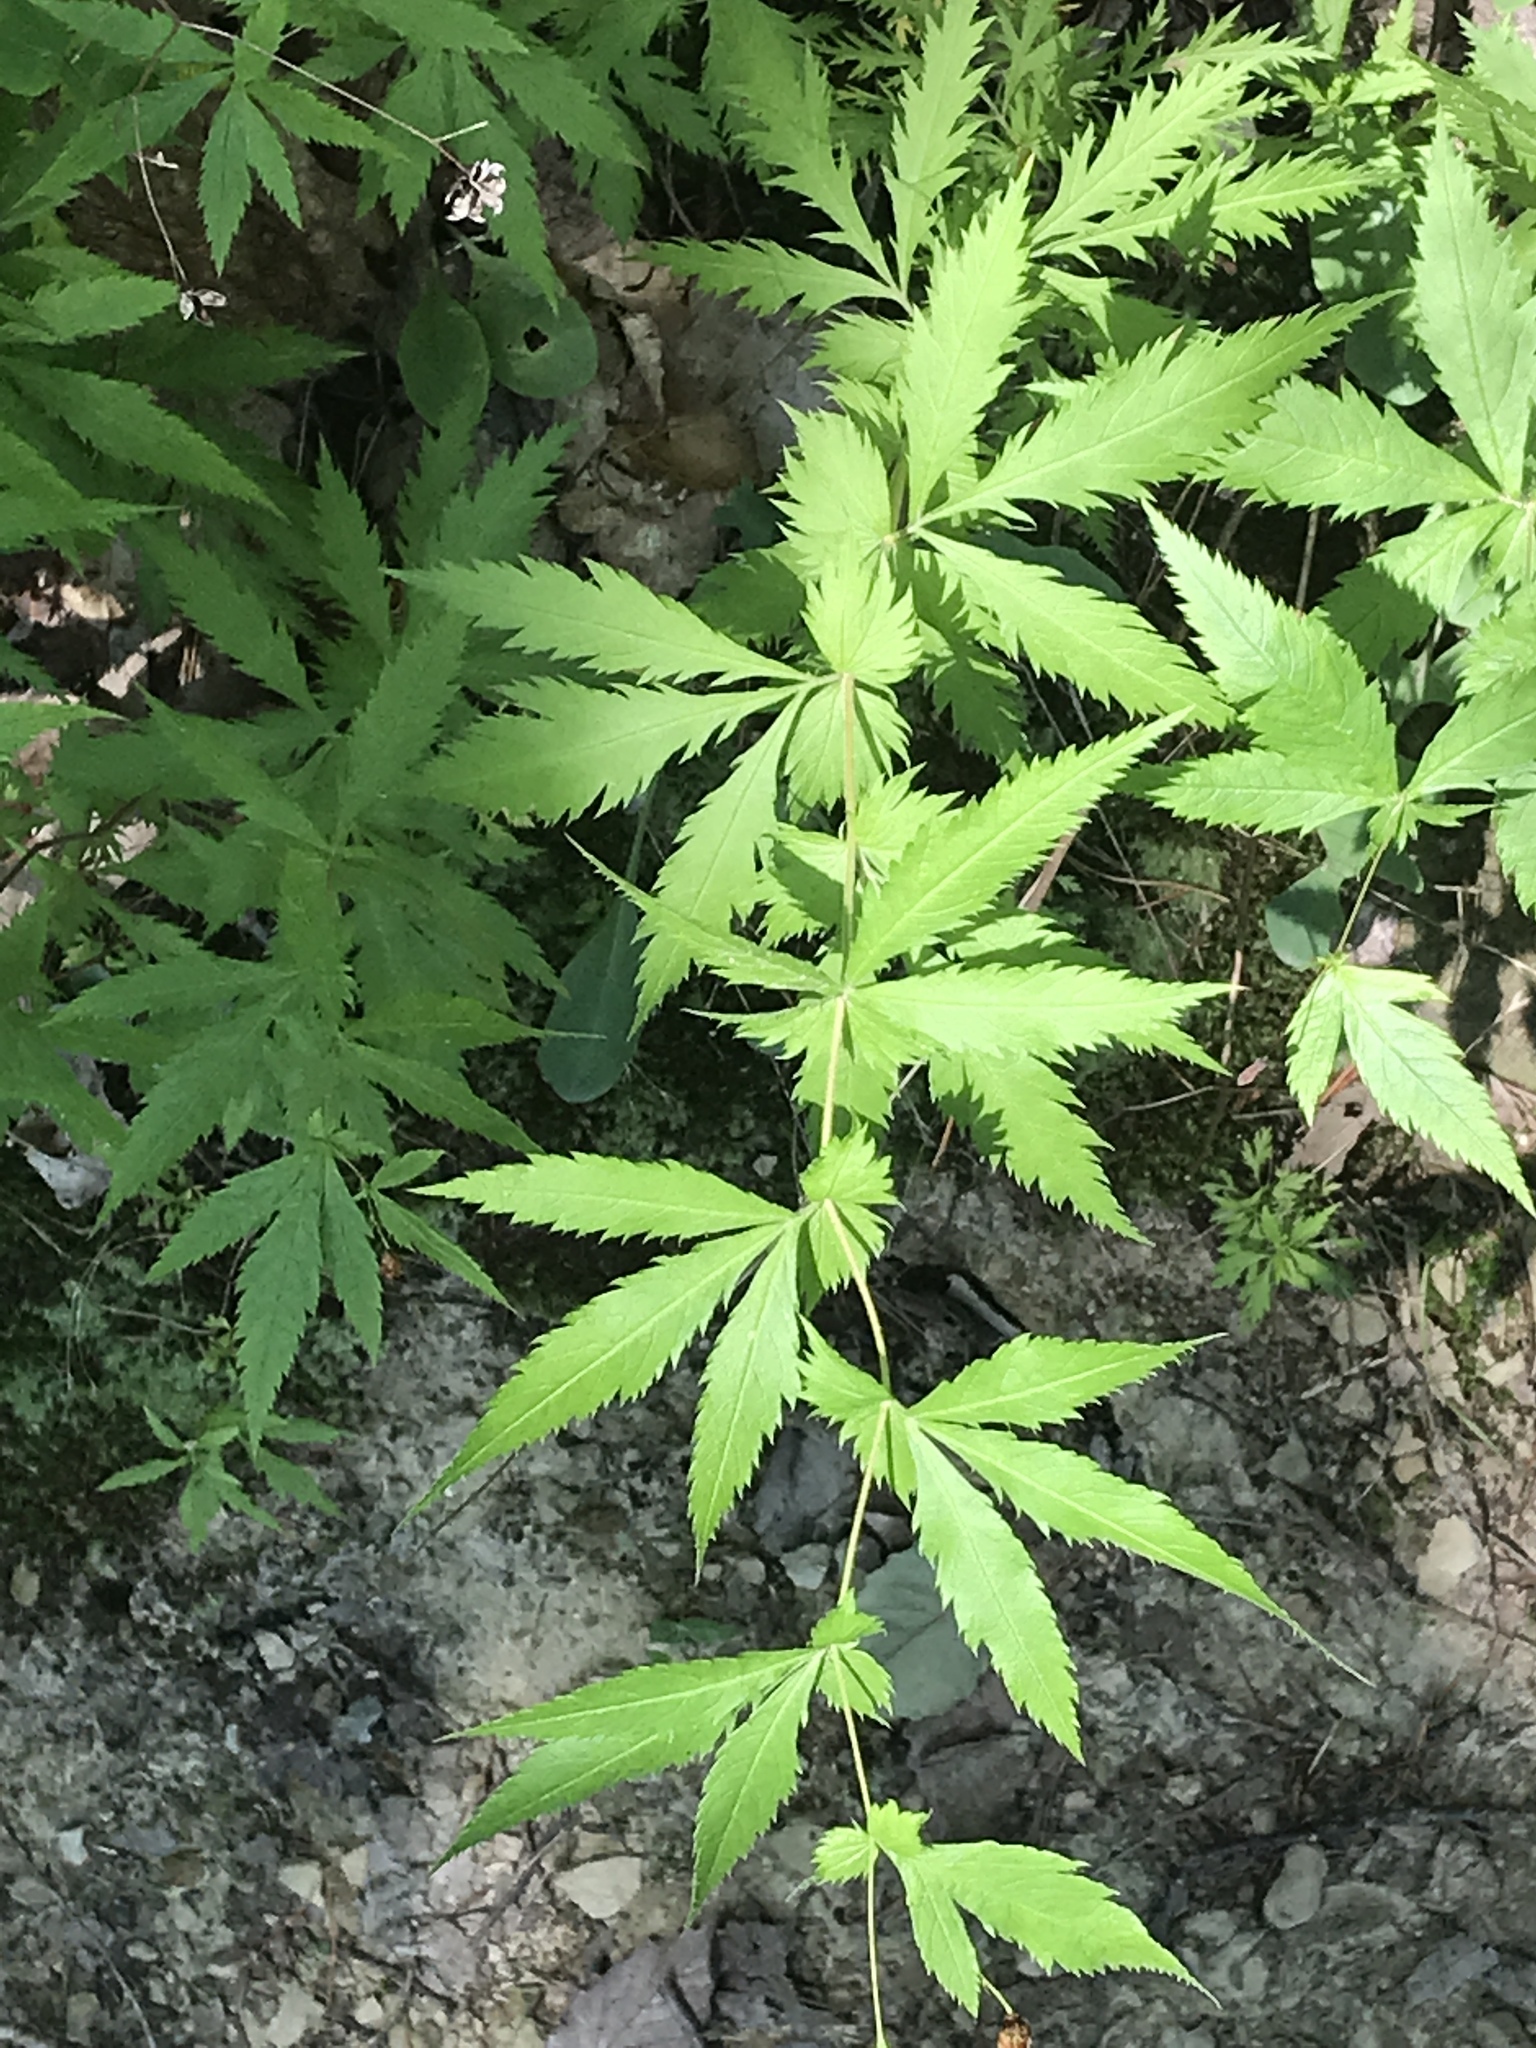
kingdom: Plantae
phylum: Tracheophyta
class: Magnoliopsida
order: Rosales
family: Rosaceae
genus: Gillenia
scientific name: Gillenia stipulata
